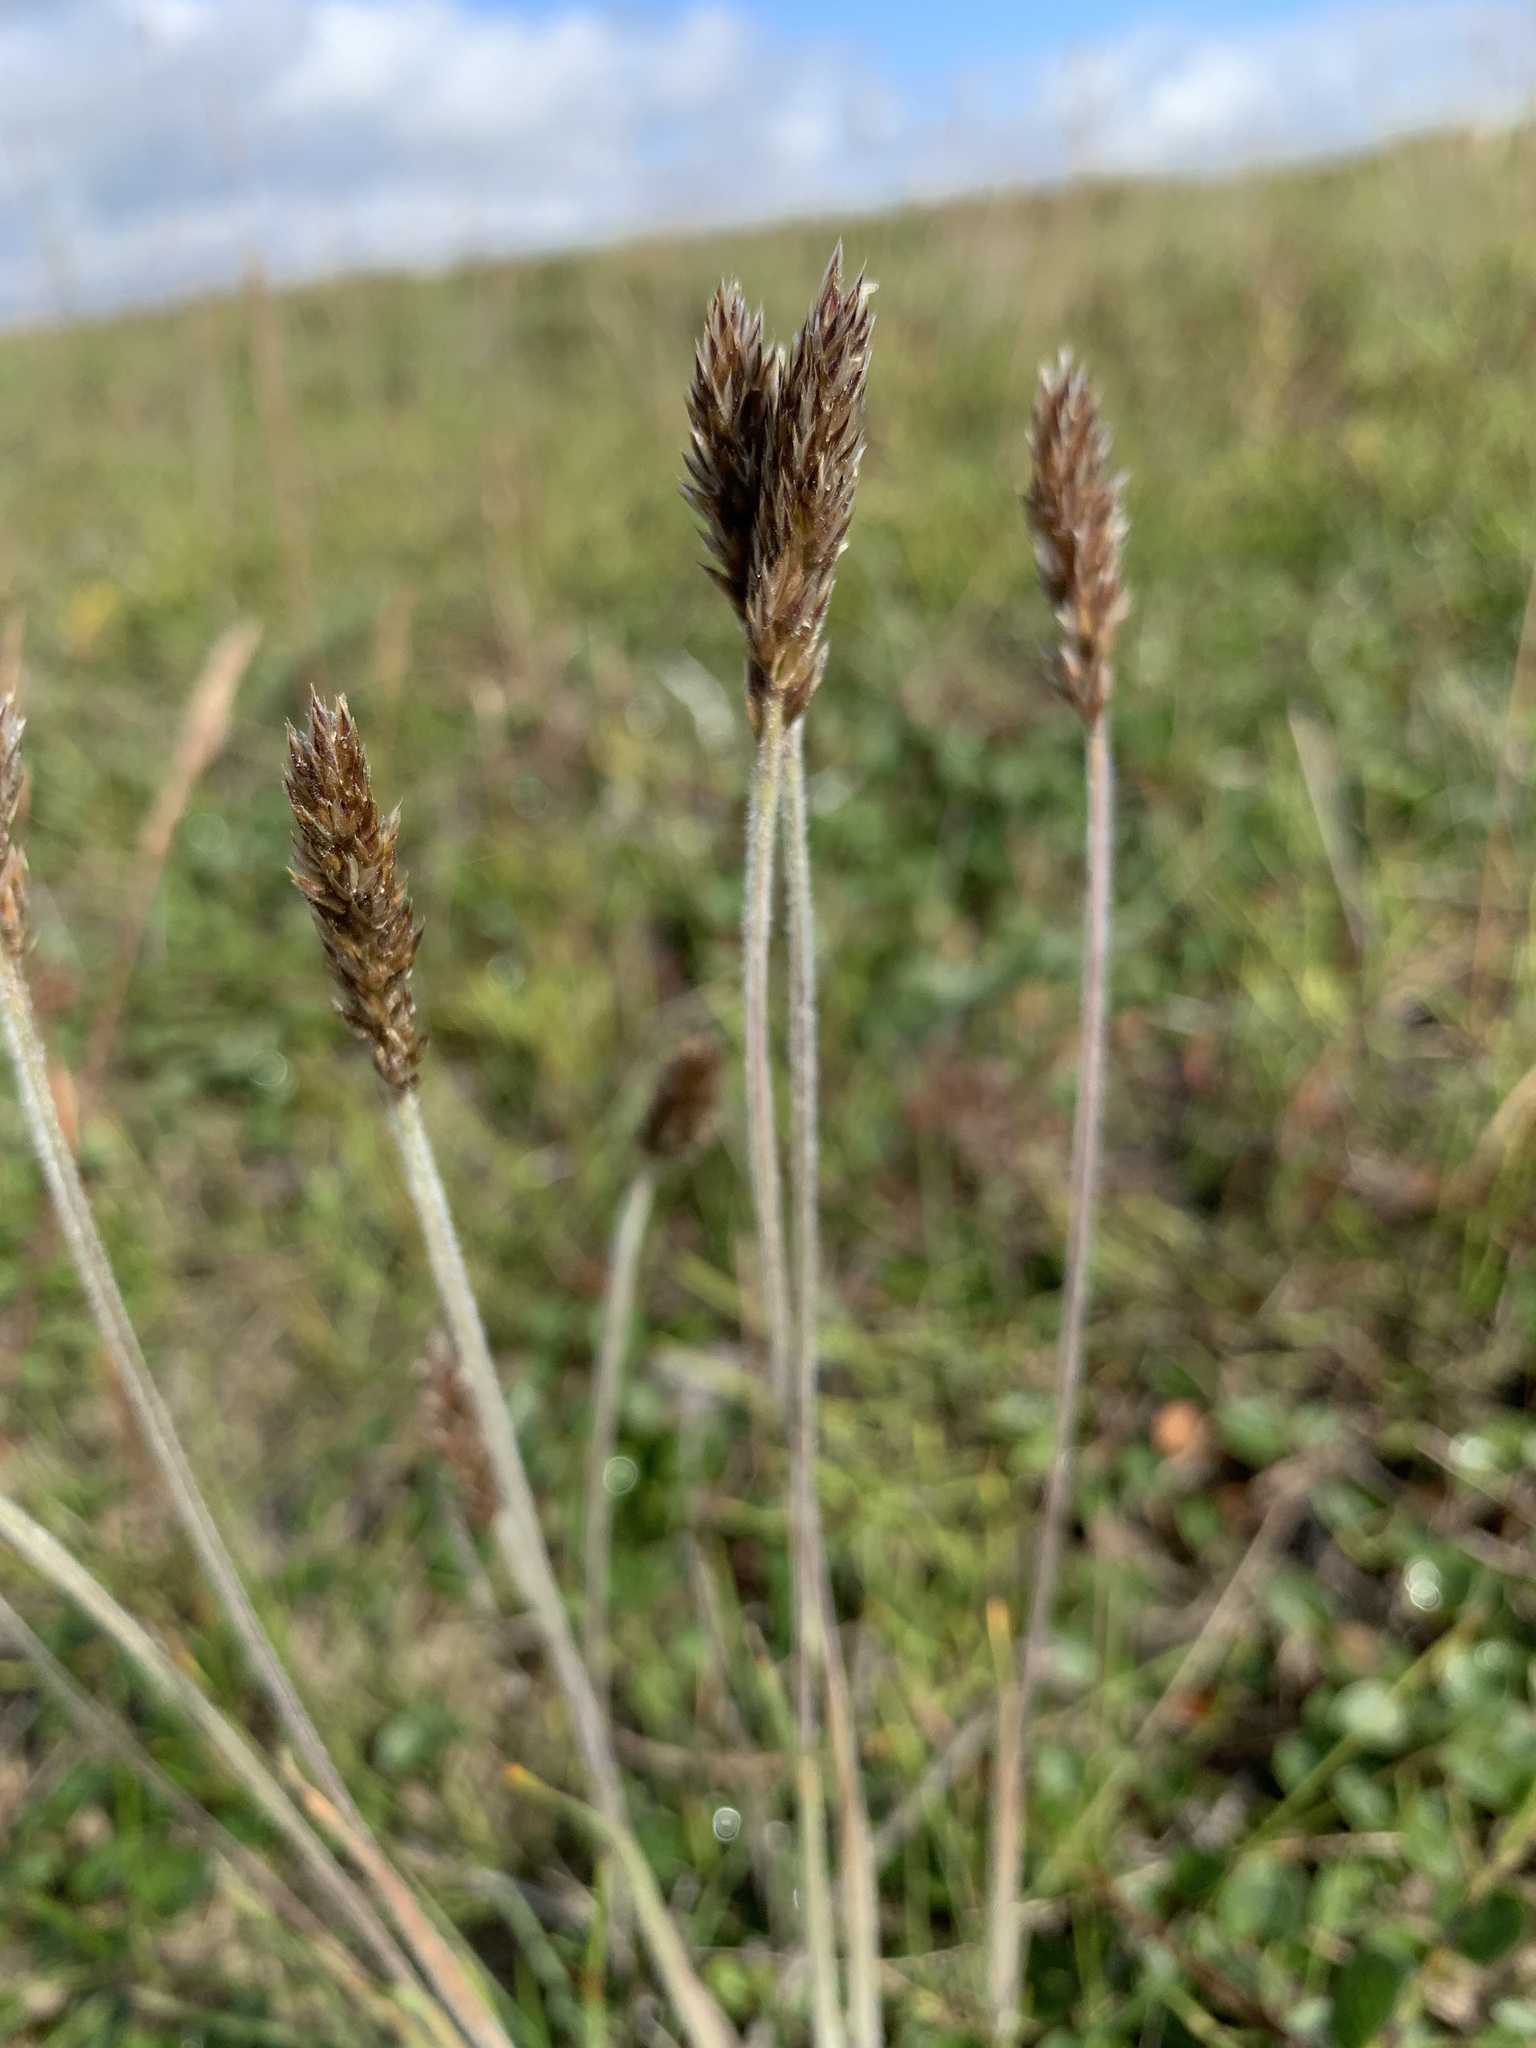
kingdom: Plantae
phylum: Tracheophyta
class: Liliopsida
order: Poales
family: Poaceae
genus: Koeleria
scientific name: Koeleria asiatica
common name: Eurasian junegrass
